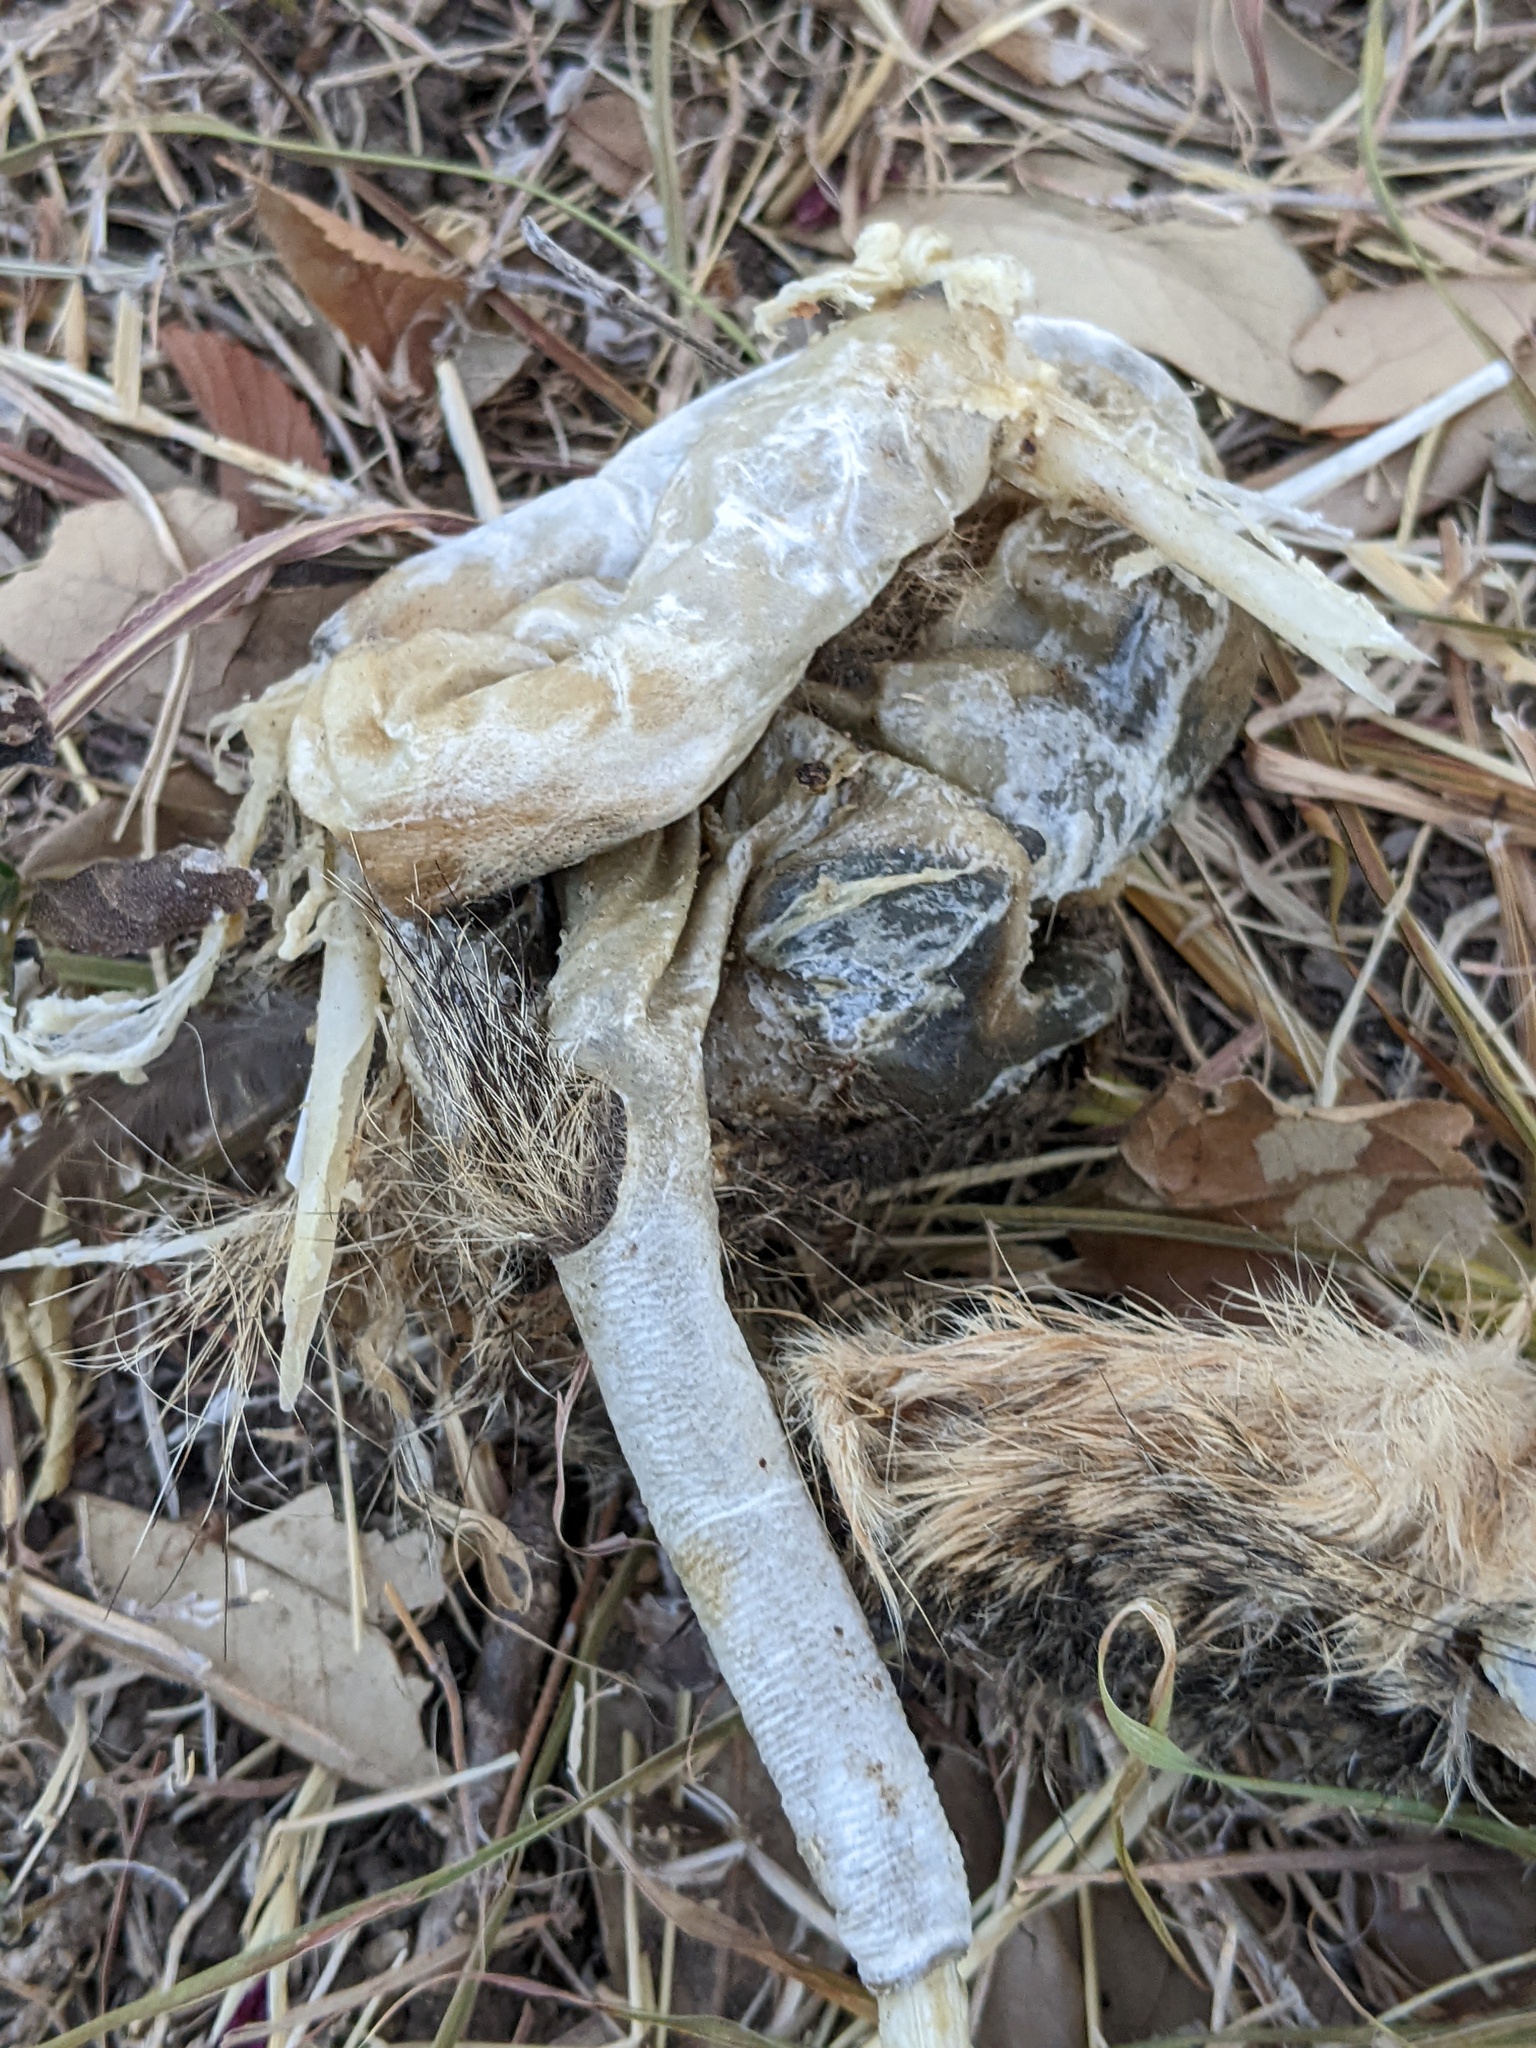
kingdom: Animalia
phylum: Chordata
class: Mammalia
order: Rodentia
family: Sciuridae
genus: Sciurus
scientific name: Sciurus niger
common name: Fox squirrel
